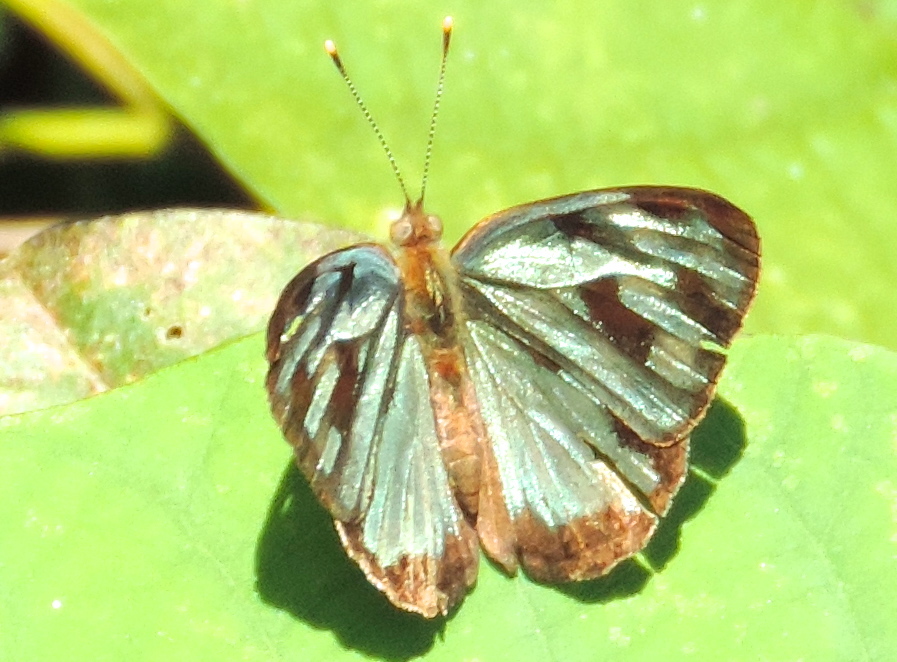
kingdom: Animalia
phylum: Arthropoda
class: Insecta
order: Lepidoptera
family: Nymphalidae
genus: Dynamine
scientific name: Dynamine mylitta
